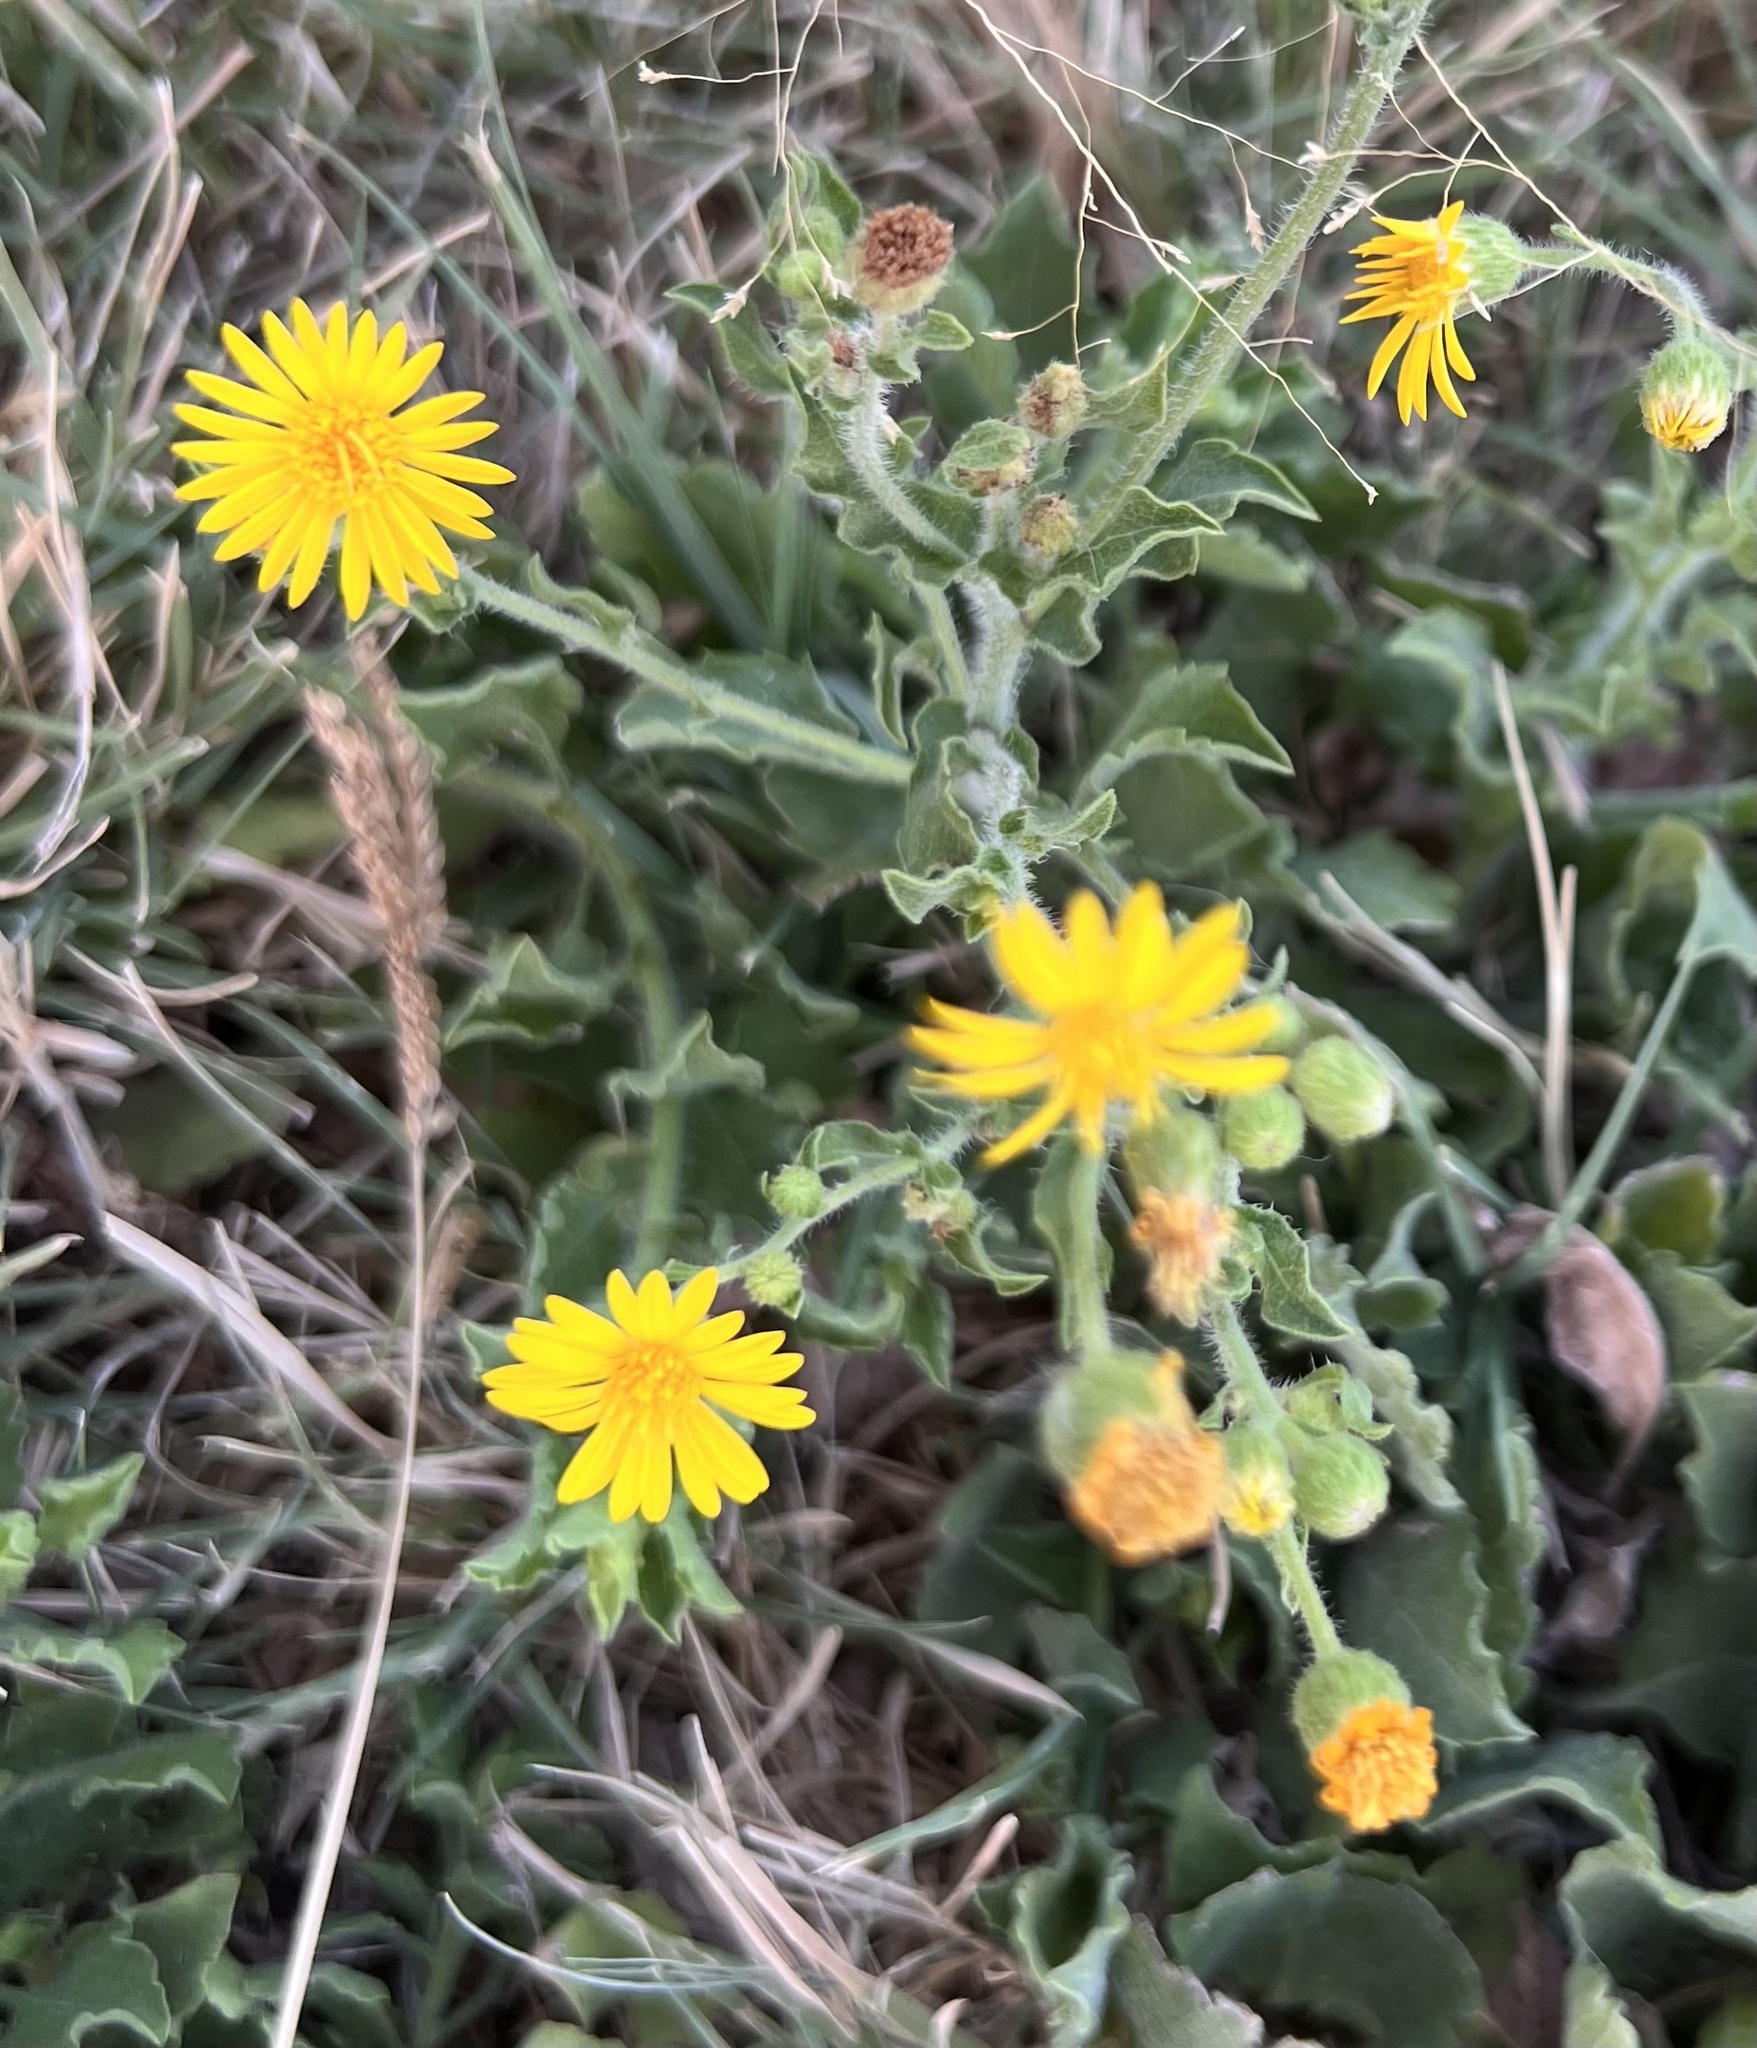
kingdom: Plantae
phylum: Tracheophyta
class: Magnoliopsida
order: Asterales
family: Asteraceae
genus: Heterotheca
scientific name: Heterotheca subaxillaris
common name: Camphorweed
